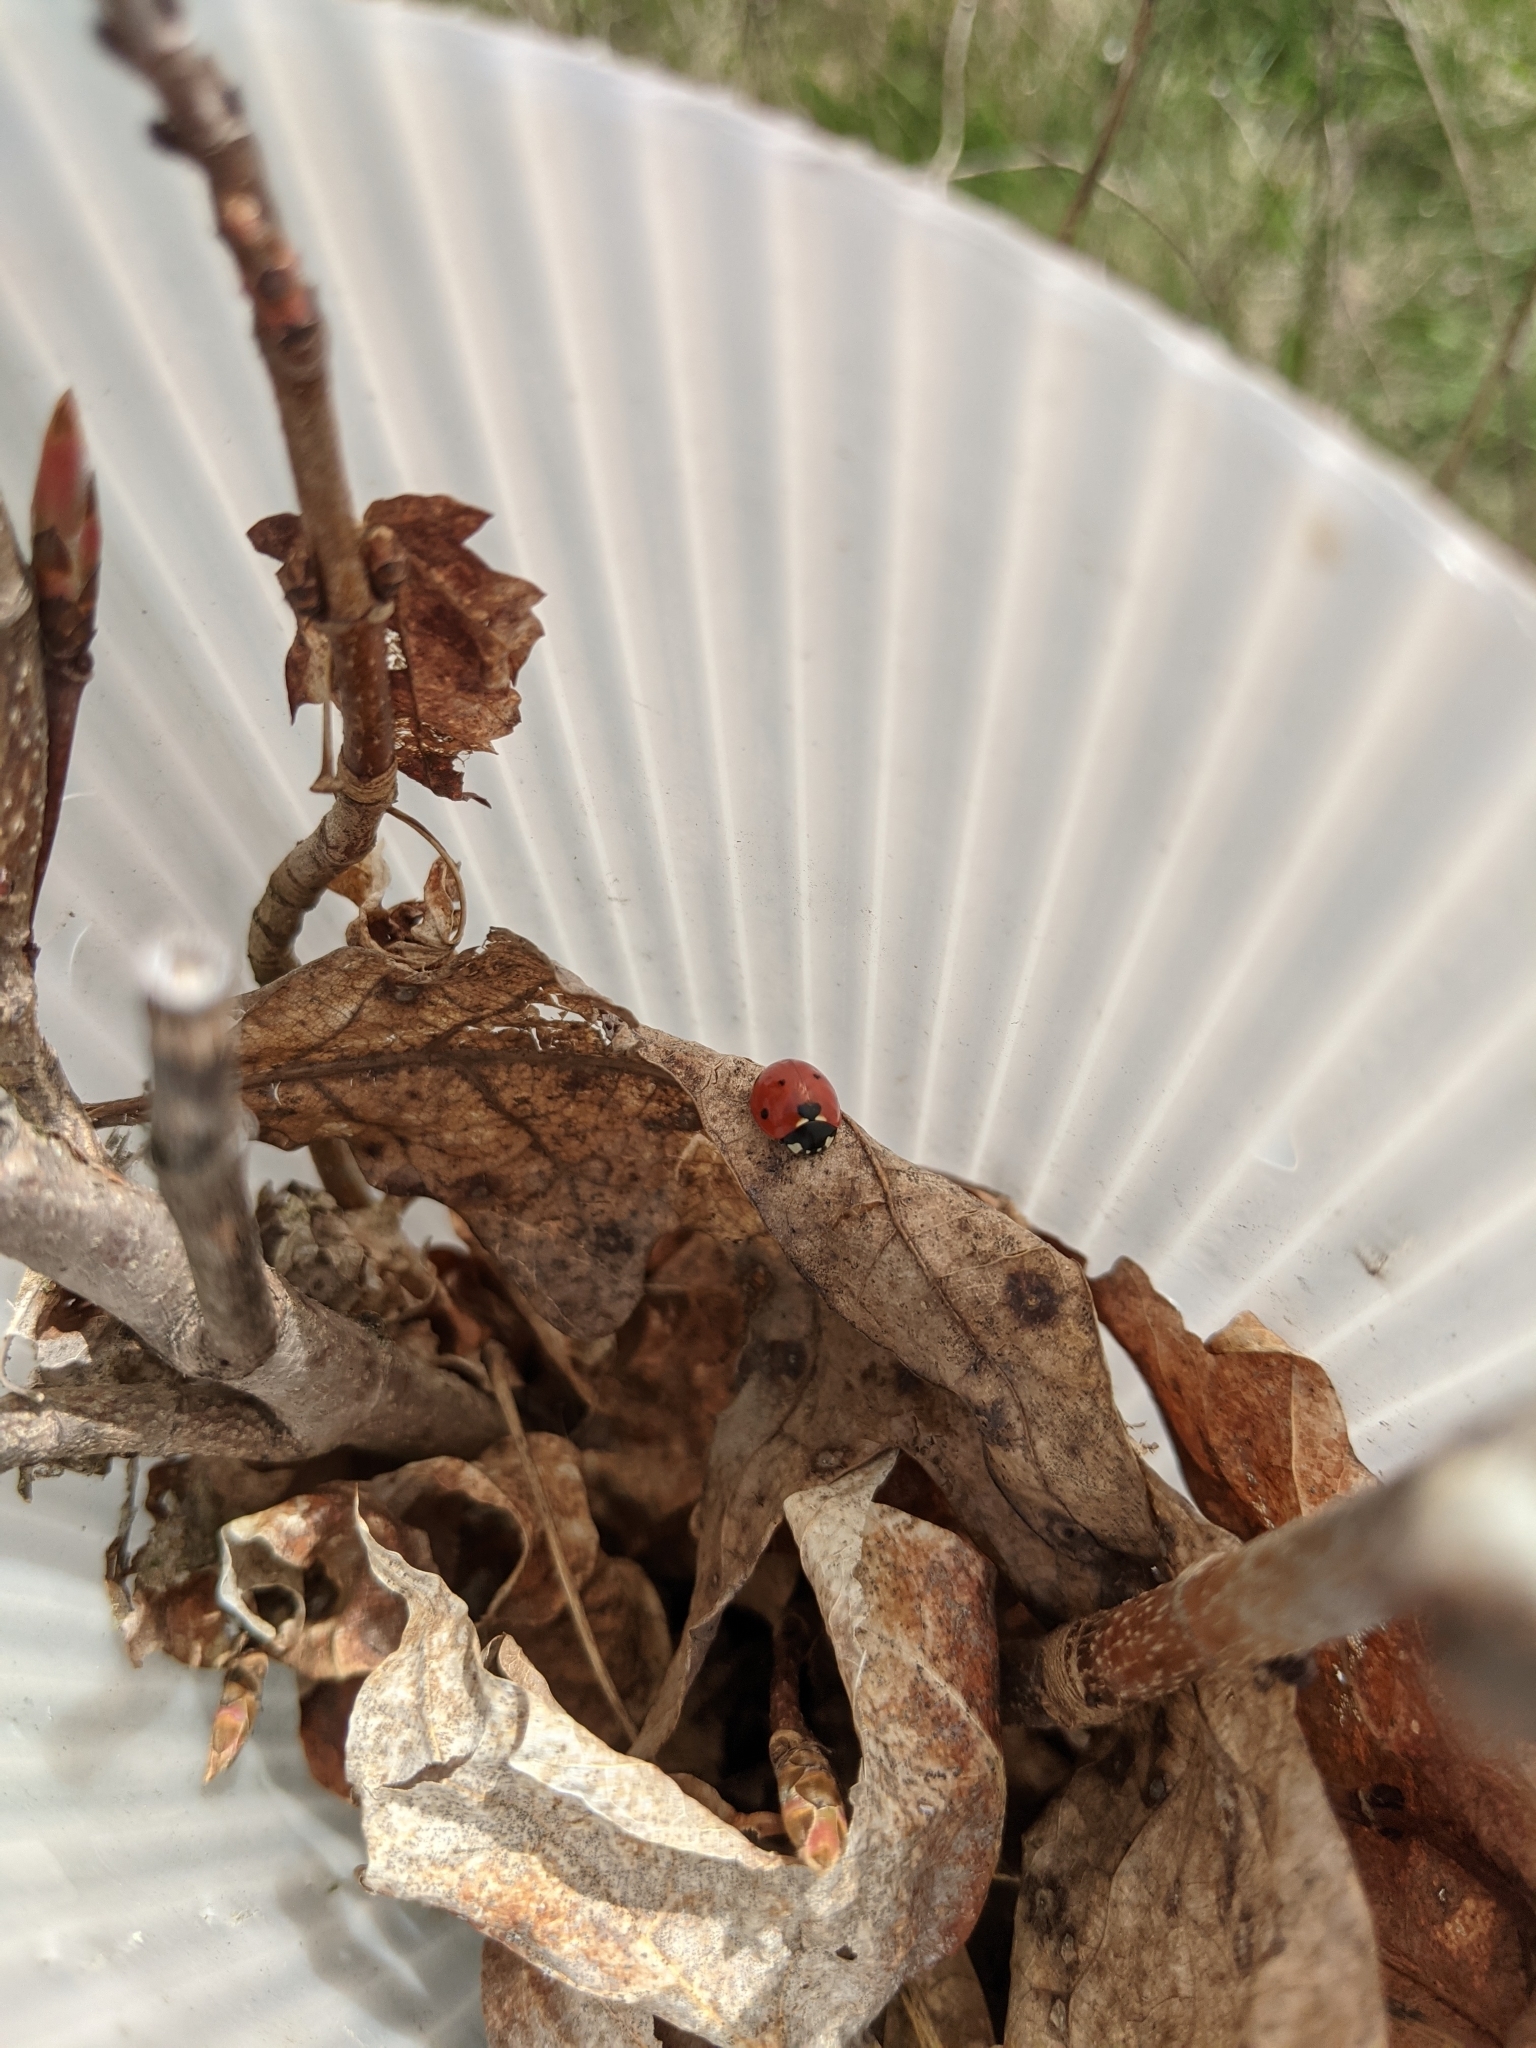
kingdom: Animalia
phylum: Arthropoda
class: Insecta
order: Coleoptera
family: Coccinellidae
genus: Coccinella
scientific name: Coccinella septempunctata
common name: Sevenspotted lady beetle
